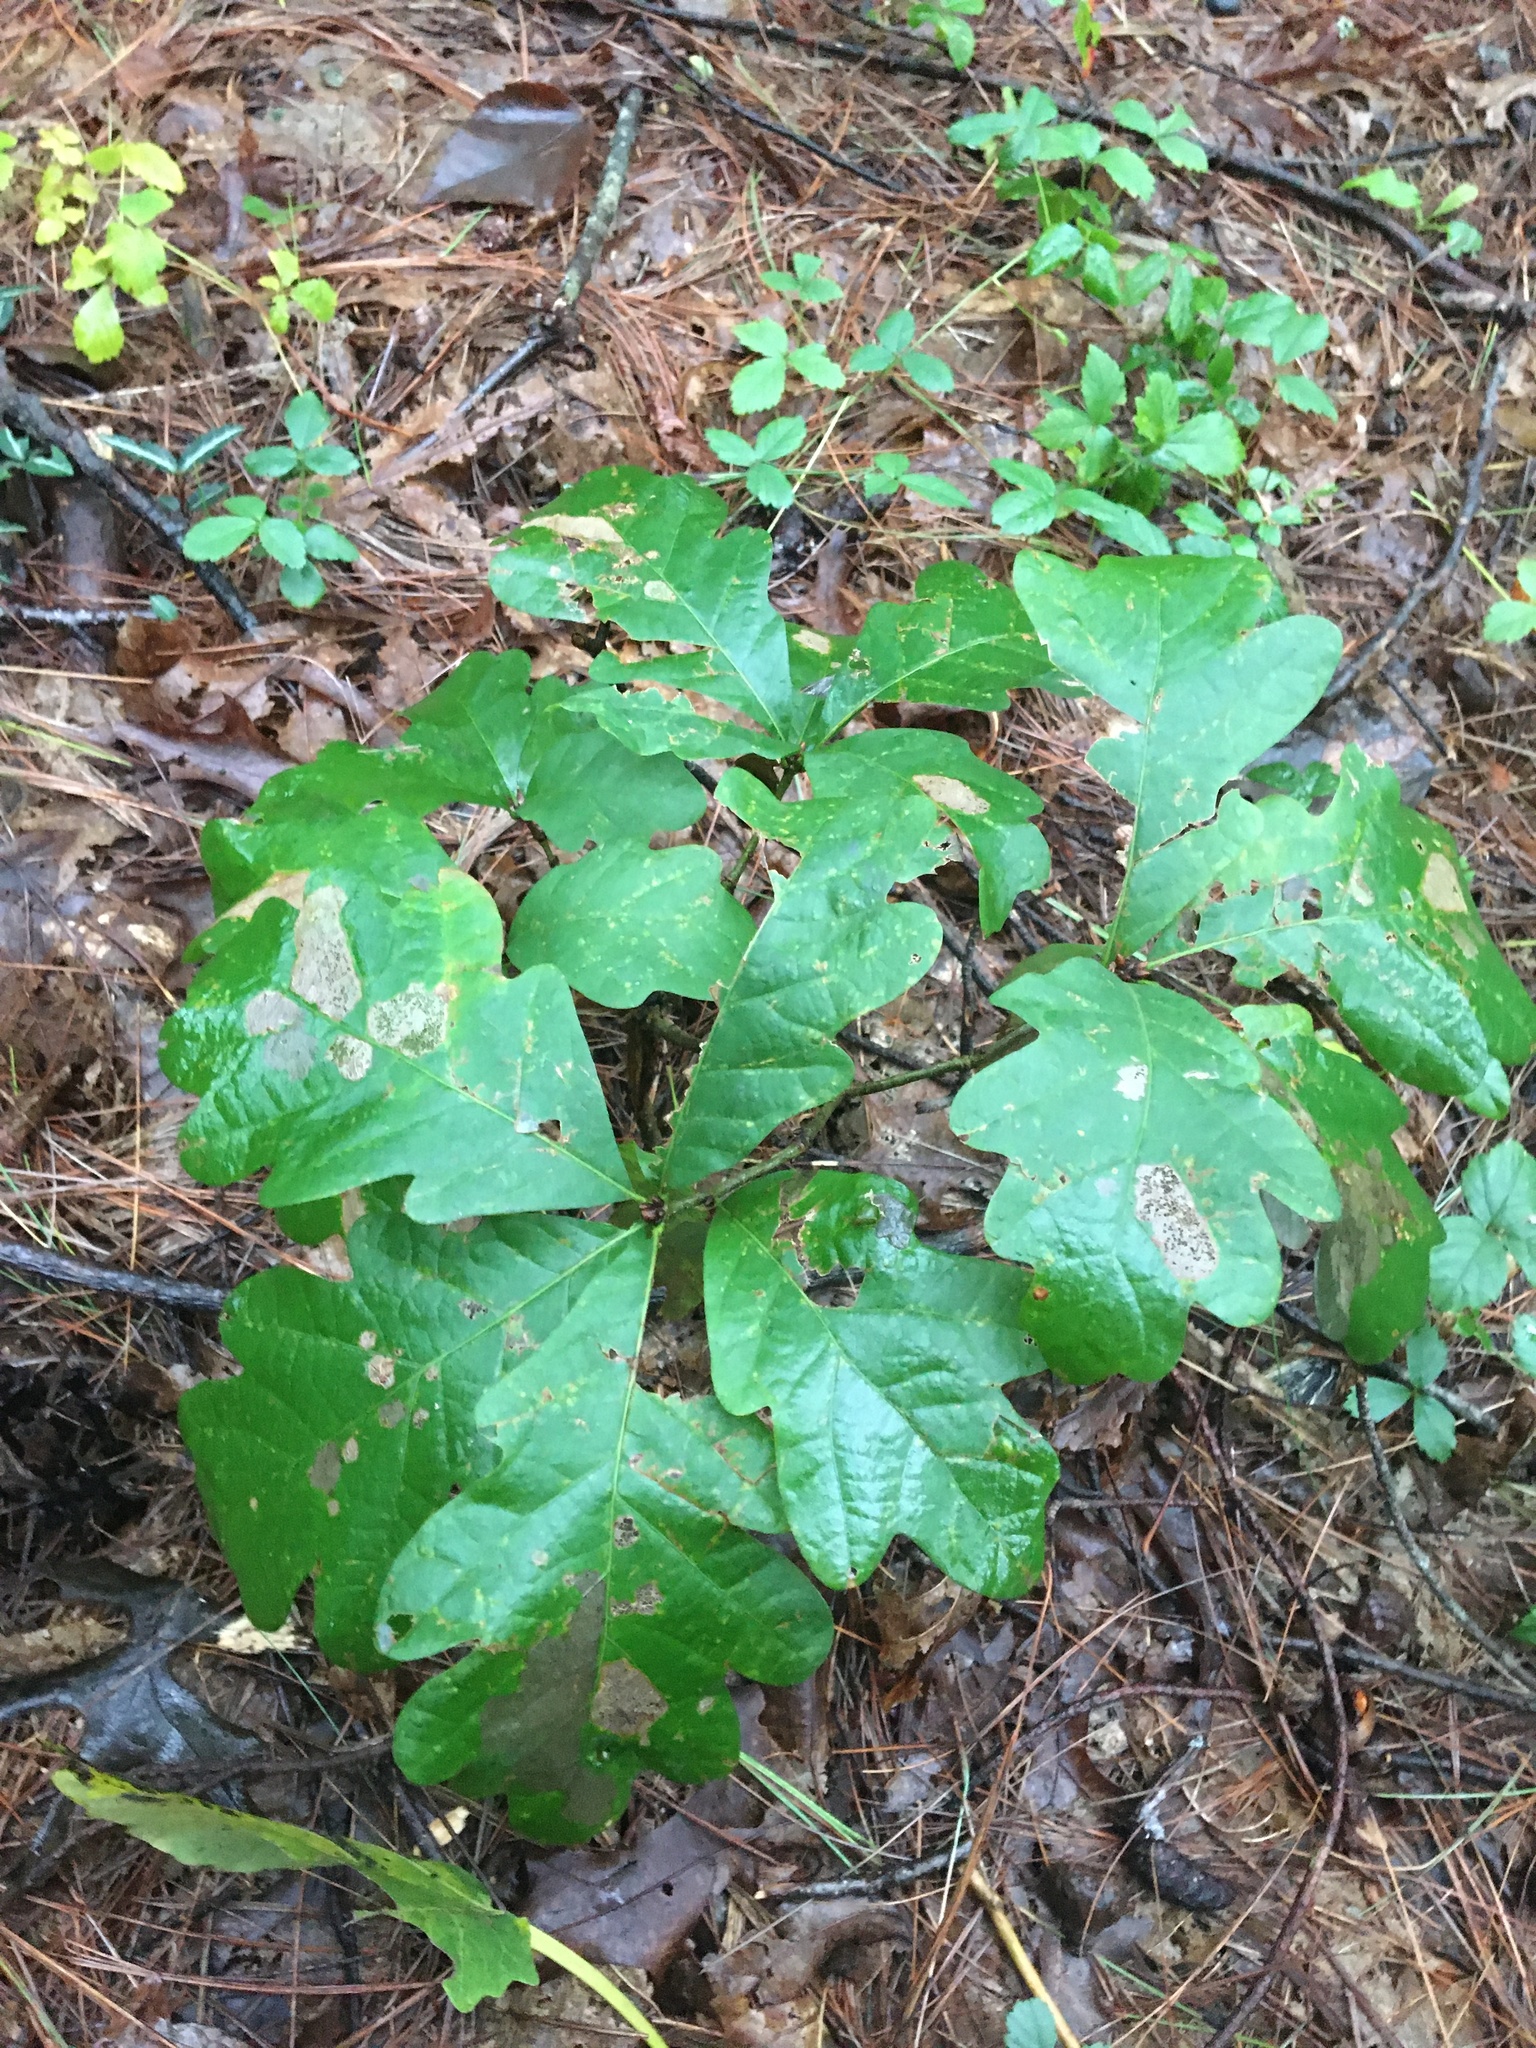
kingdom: Plantae
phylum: Tracheophyta
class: Magnoliopsida
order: Fagales
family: Fagaceae
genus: Quercus
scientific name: Quercus alba
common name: White oak
